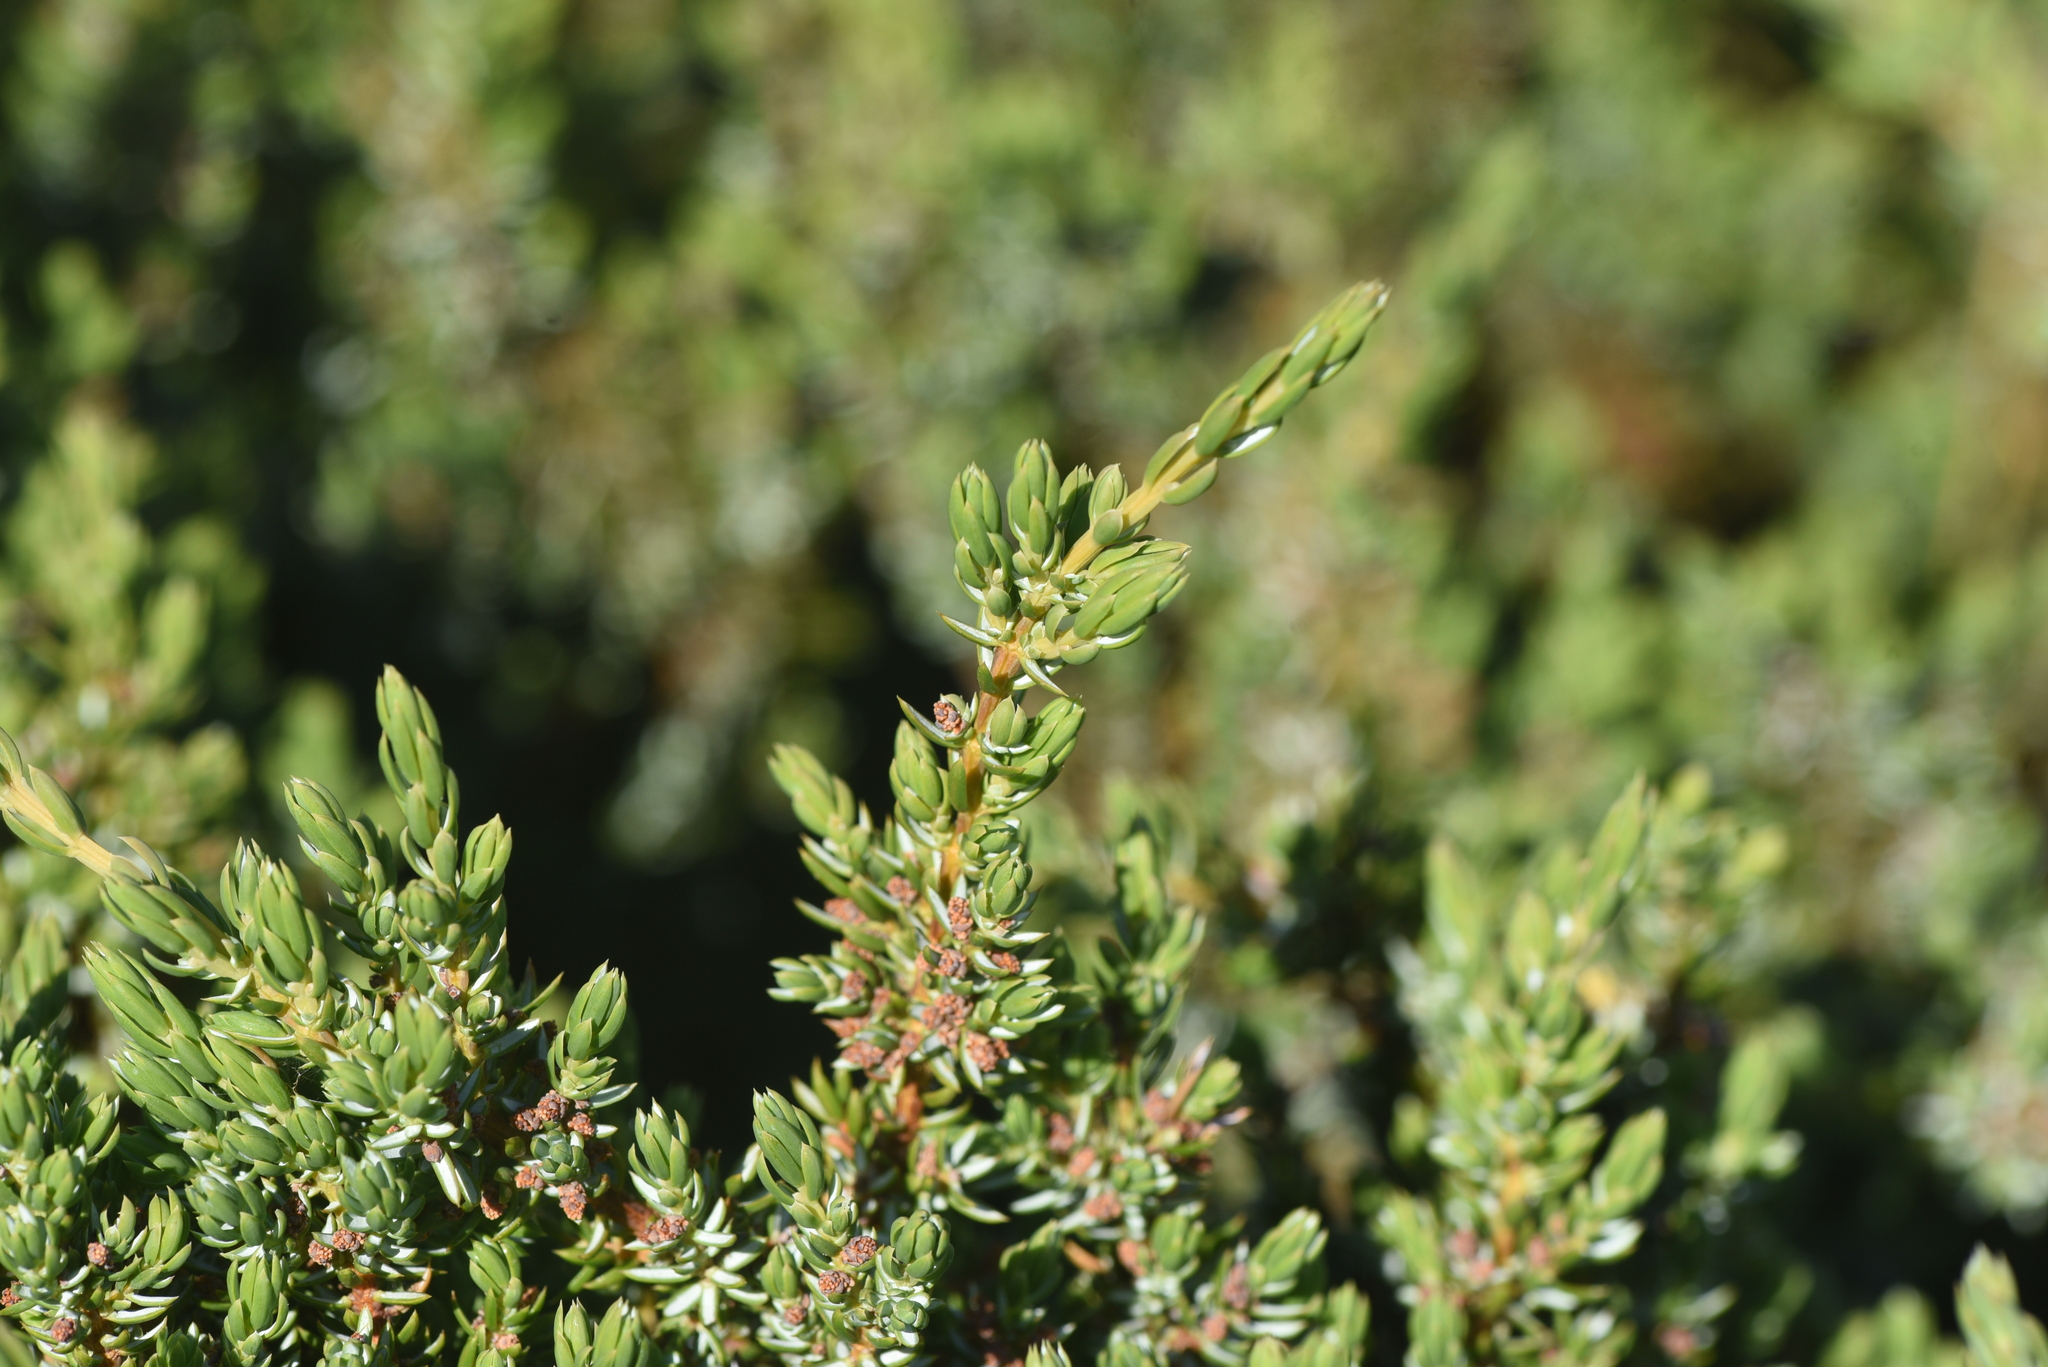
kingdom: Plantae
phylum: Tracheophyta
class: Pinopsida
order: Pinales
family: Cupressaceae
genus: Juniperus
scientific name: Juniperus communis
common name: Common juniper
